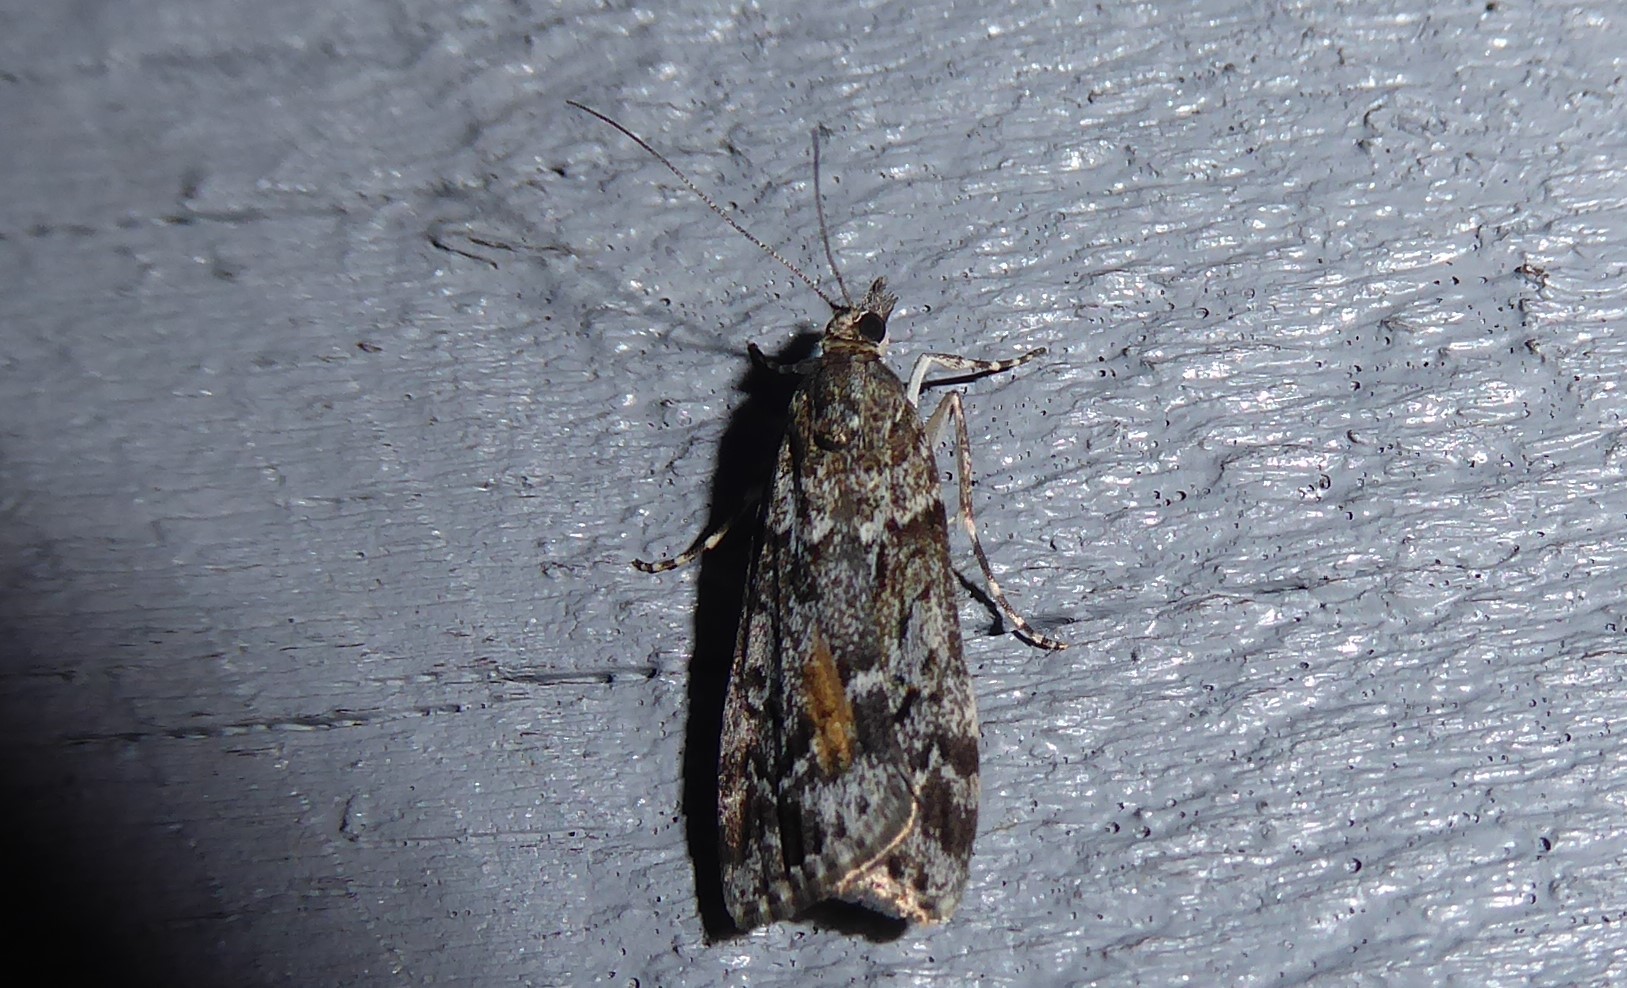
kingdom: Animalia
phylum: Arthropoda
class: Insecta
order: Lepidoptera
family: Crambidae
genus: Eudonia
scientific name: Eudonia submarginalis
